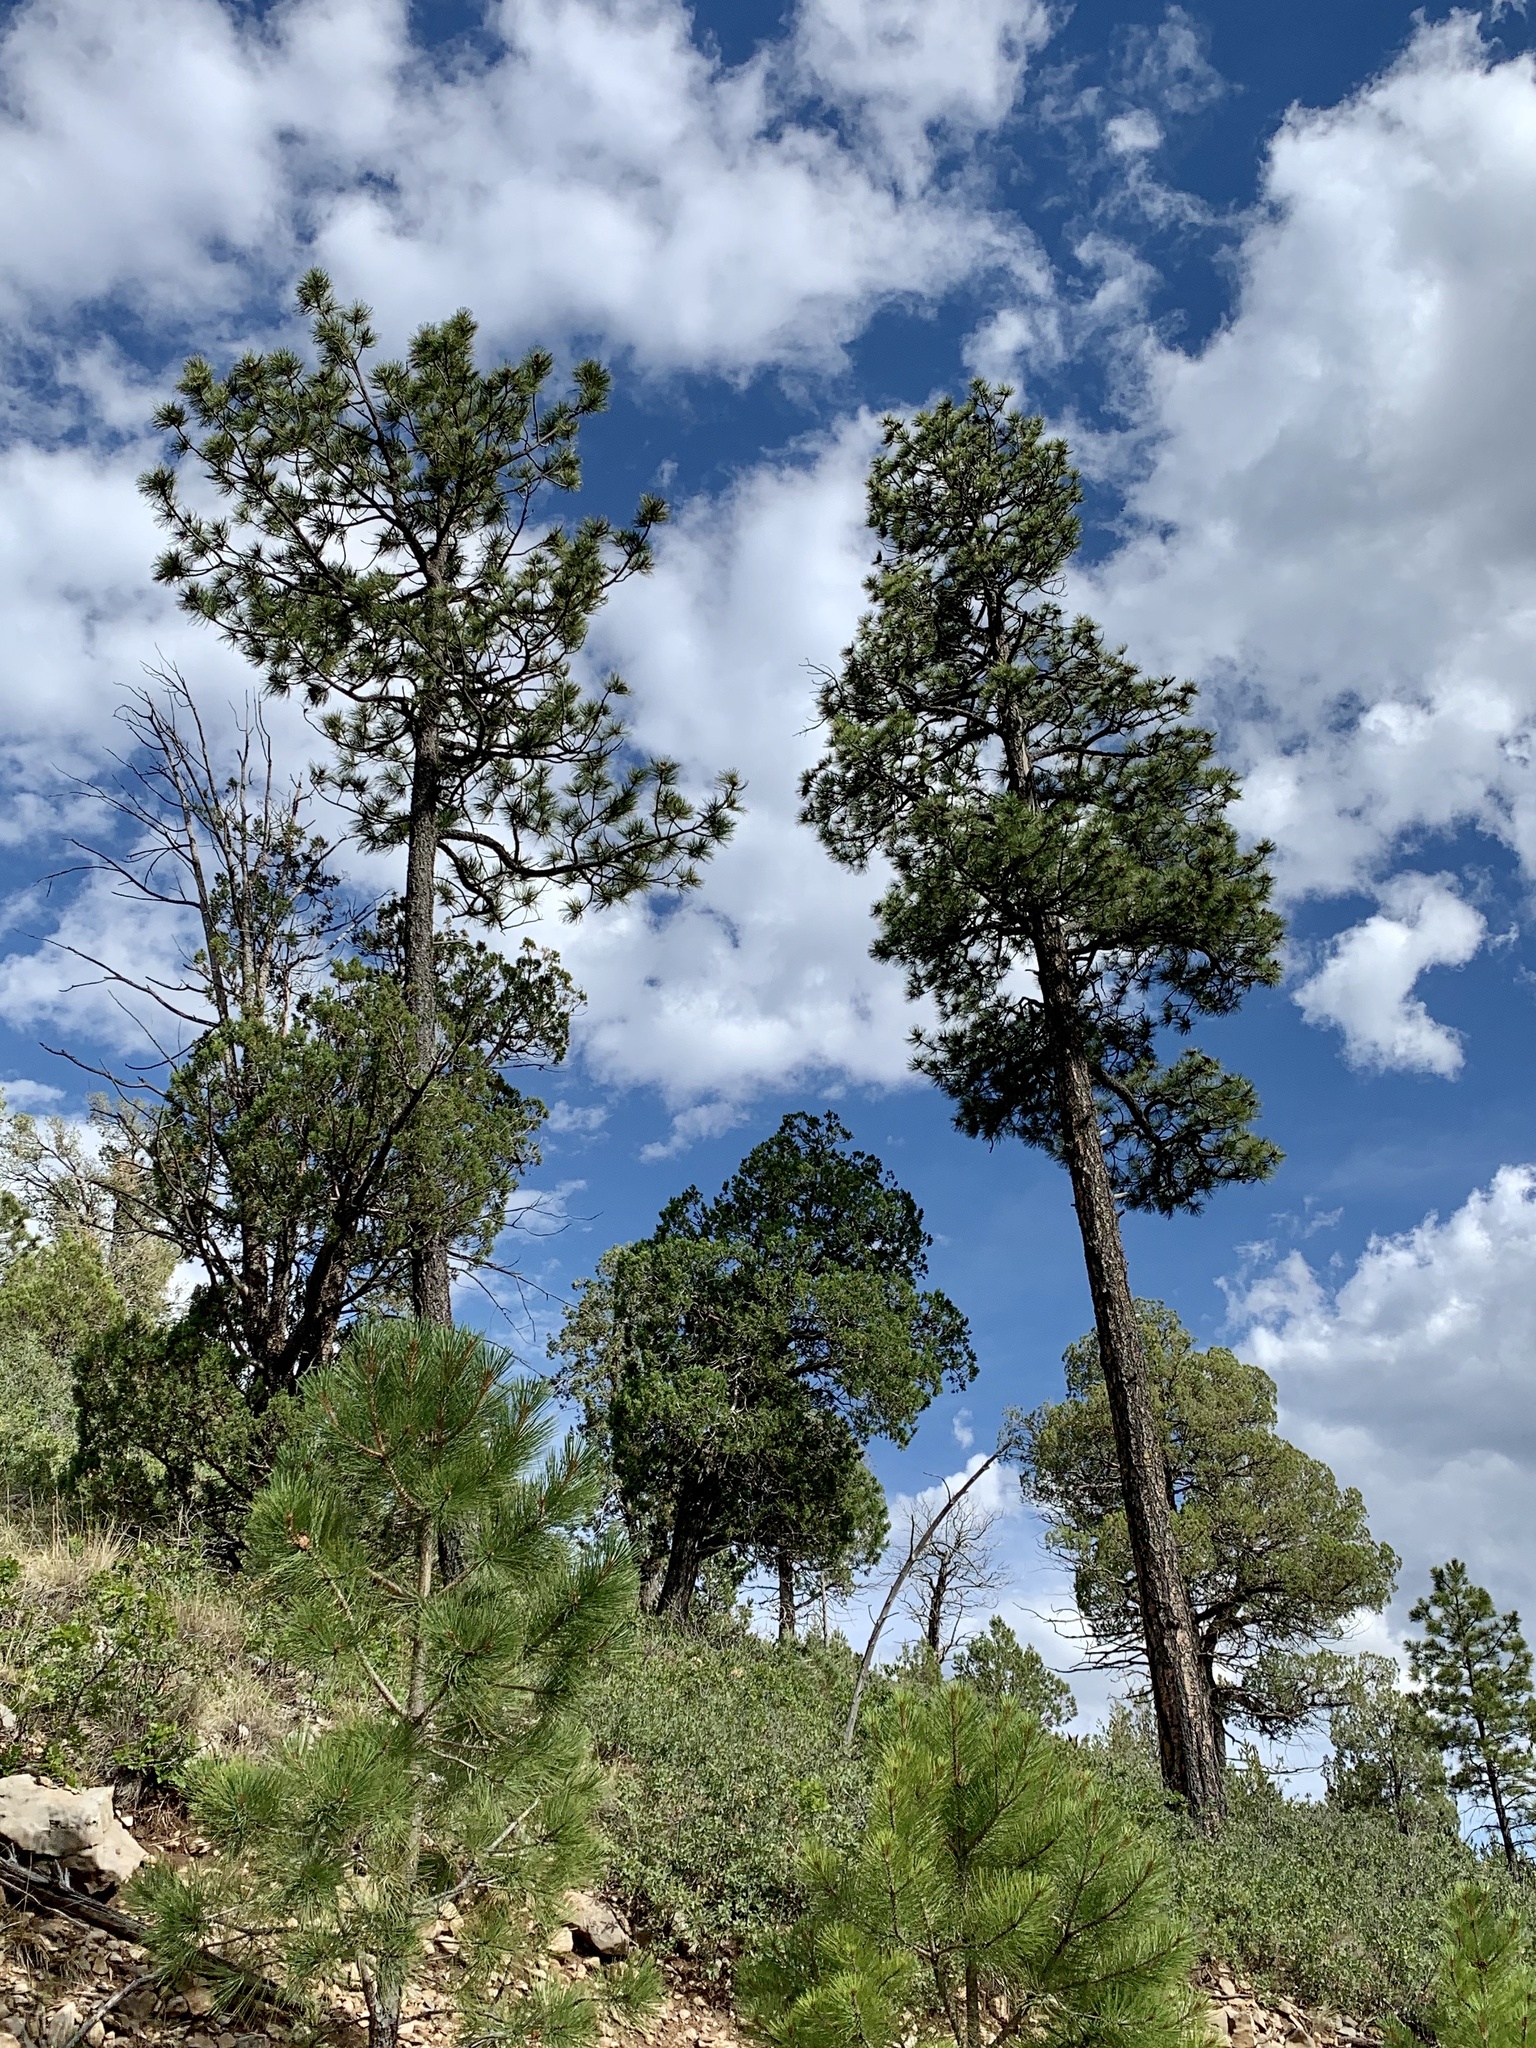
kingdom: Plantae
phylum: Tracheophyta
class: Pinopsida
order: Pinales
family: Pinaceae
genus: Pinus
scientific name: Pinus ponderosa
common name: Western yellow-pine
